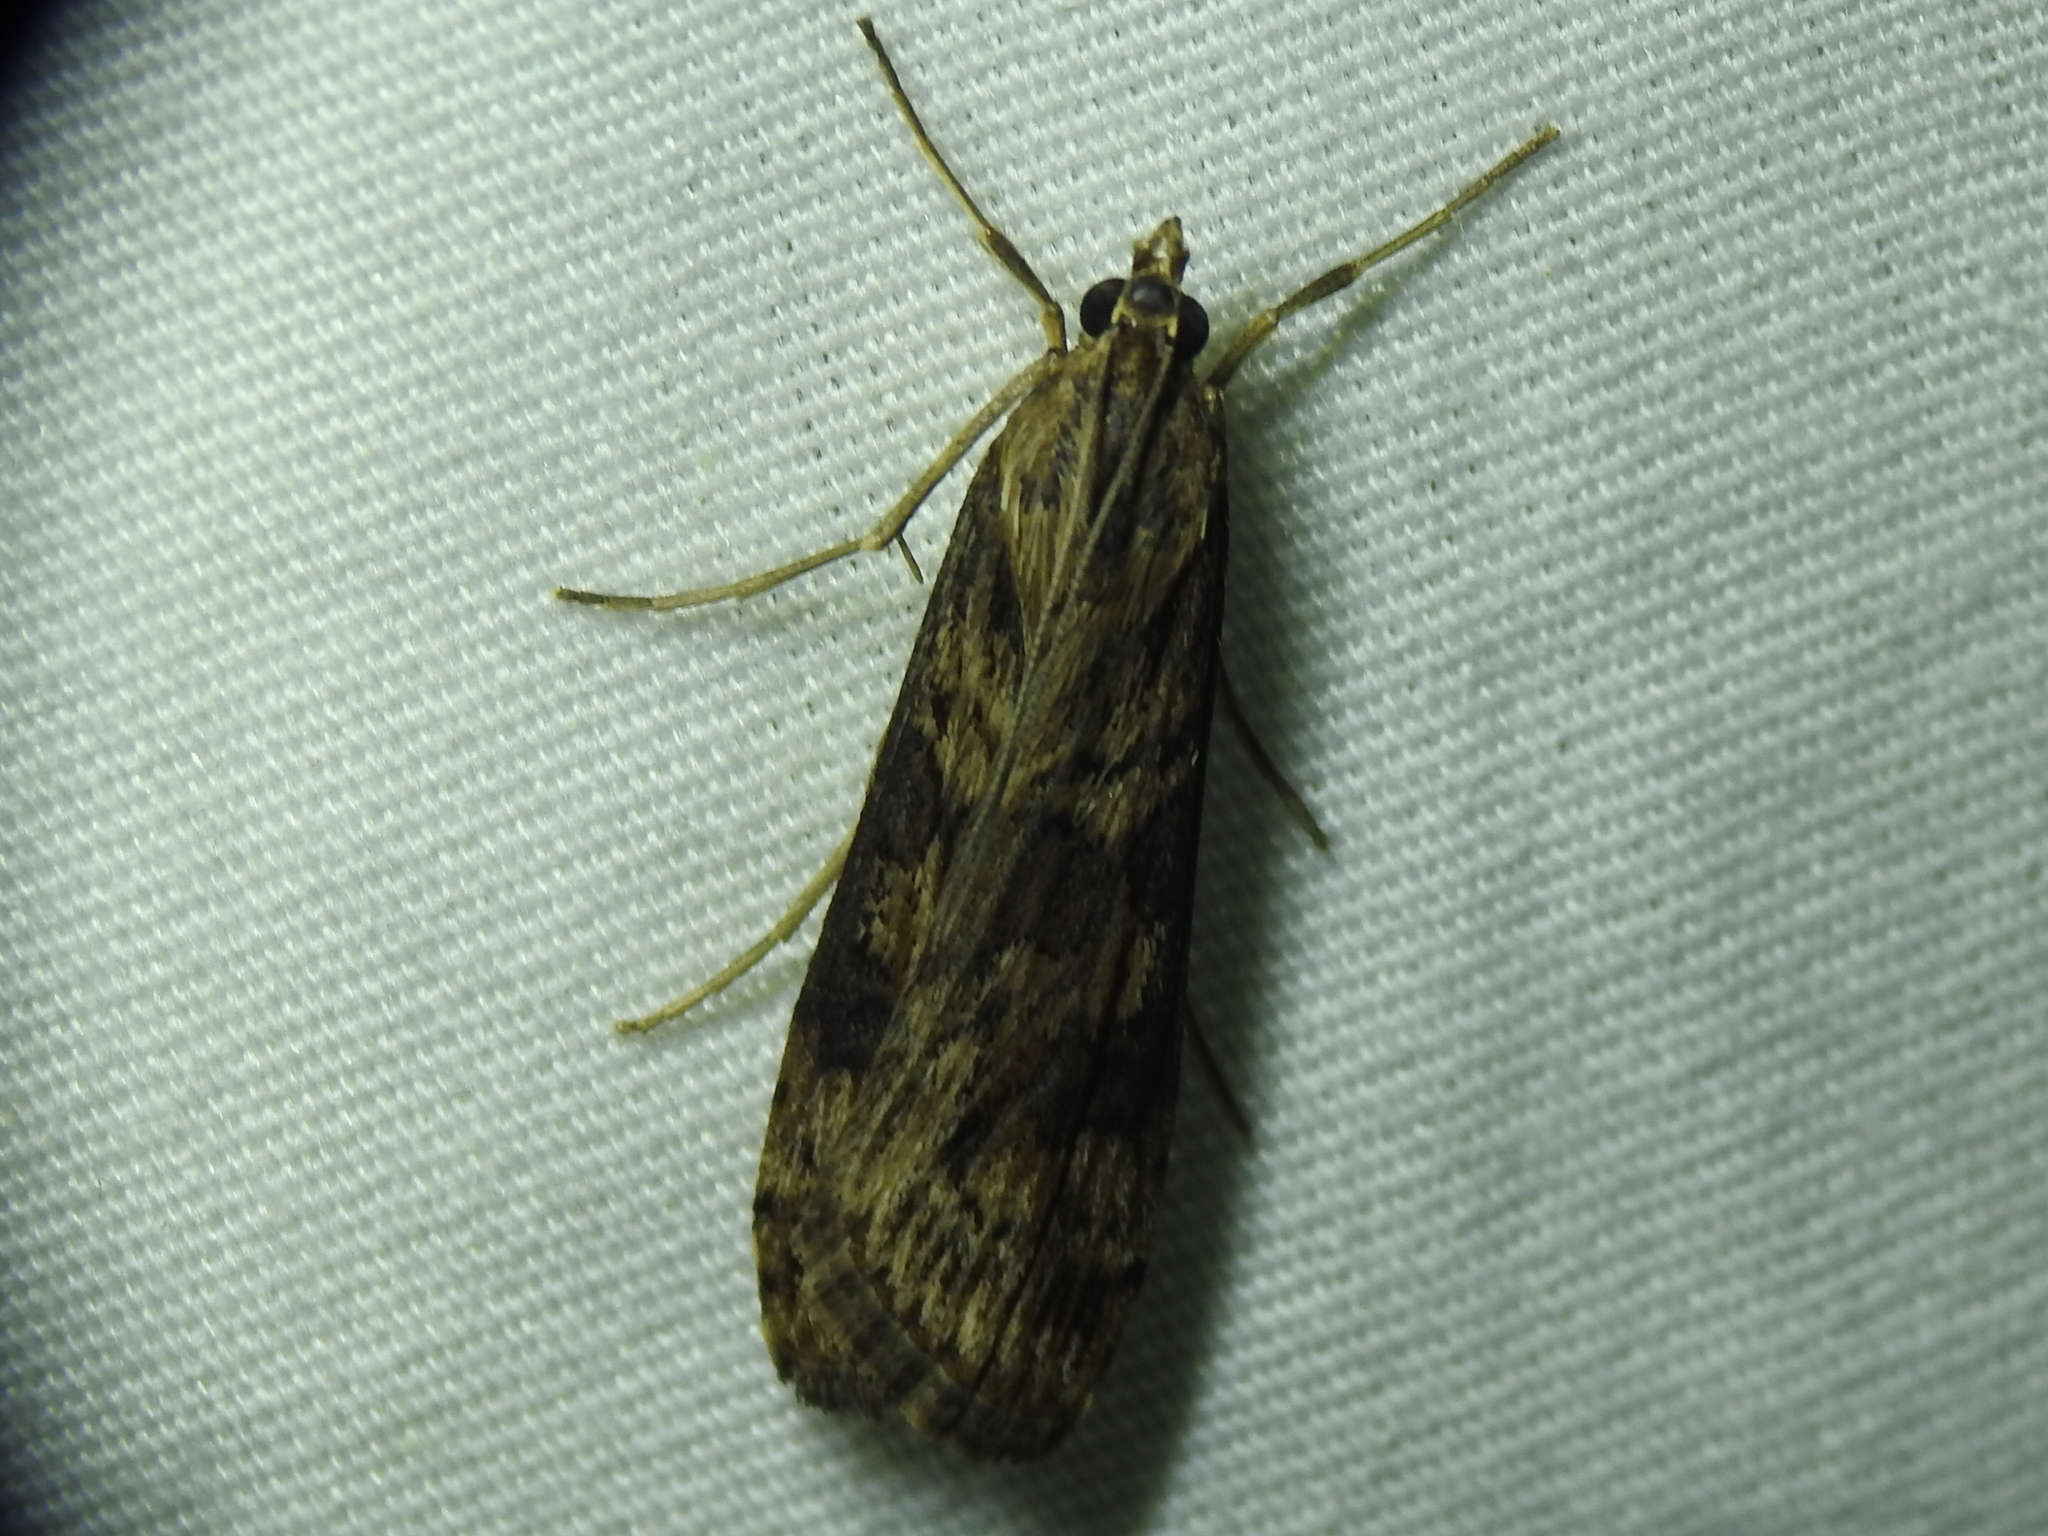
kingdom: Animalia
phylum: Arthropoda
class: Insecta
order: Lepidoptera
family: Crambidae
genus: Nomophila
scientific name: Nomophila nearctica
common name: American rush veneer
